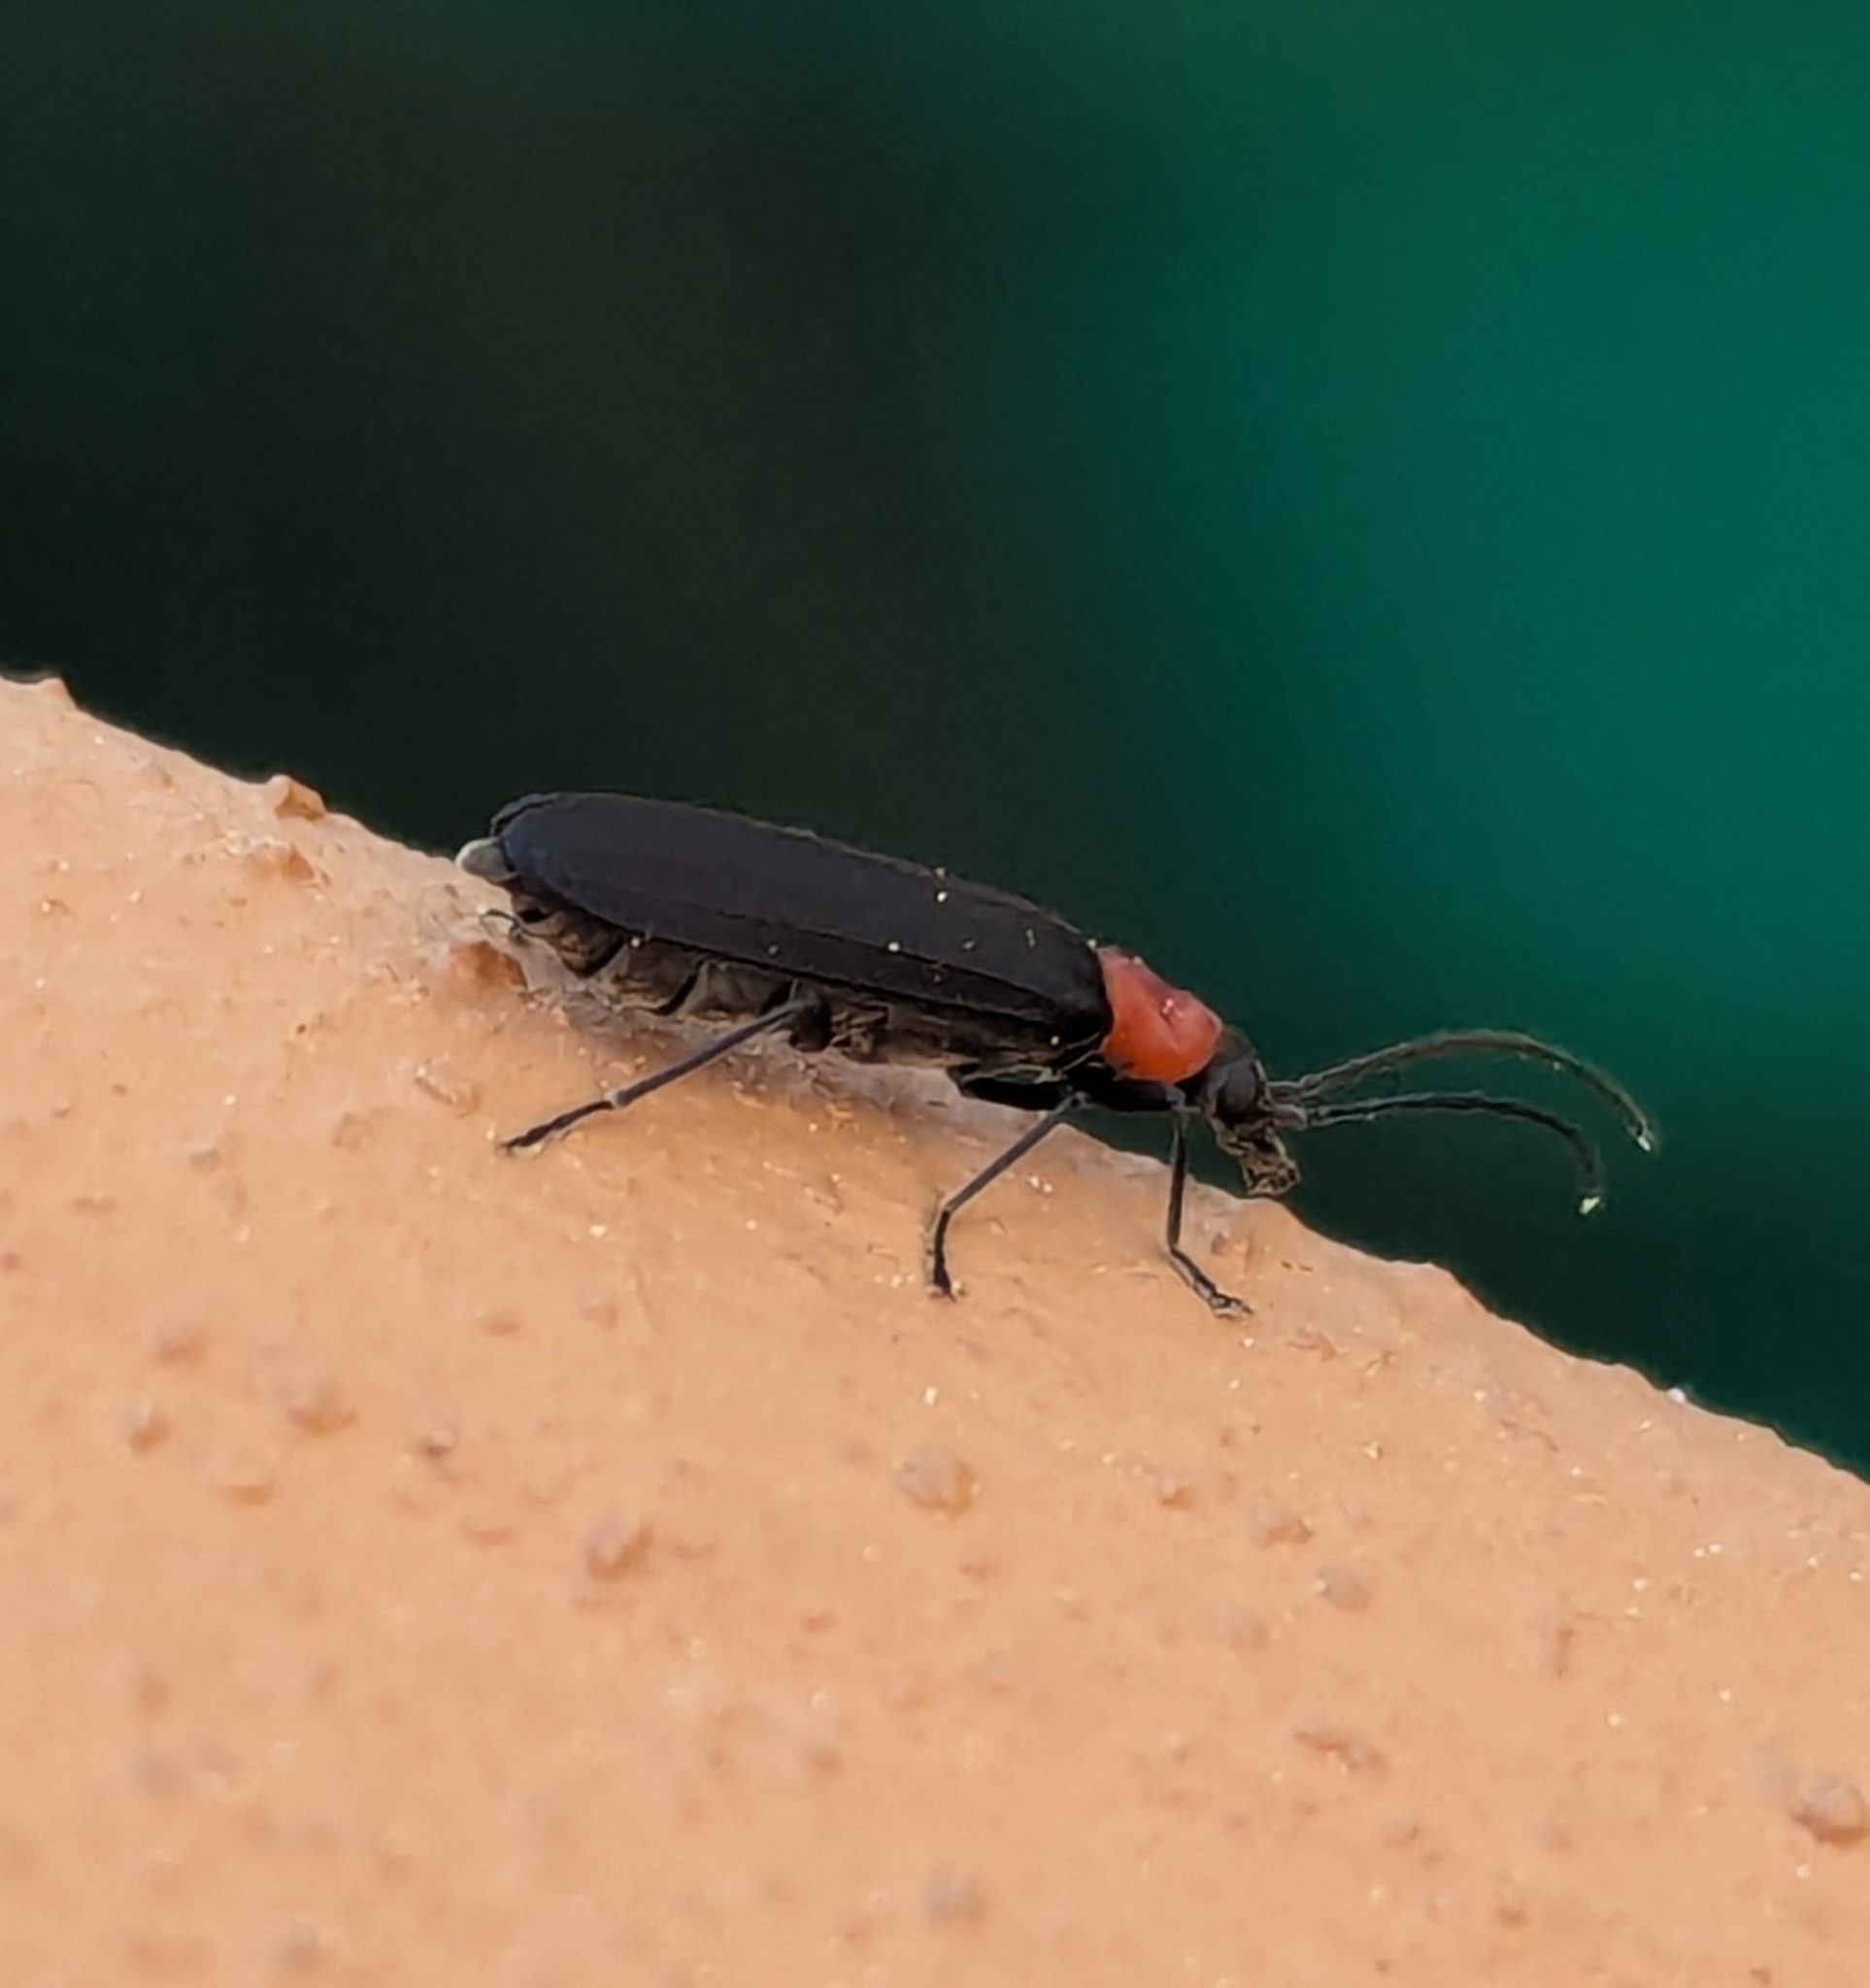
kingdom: Animalia
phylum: Arthropoda
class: Insecta
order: Coleoptera
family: Oedemeridae
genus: Ischnomera
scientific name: Ischnomera
